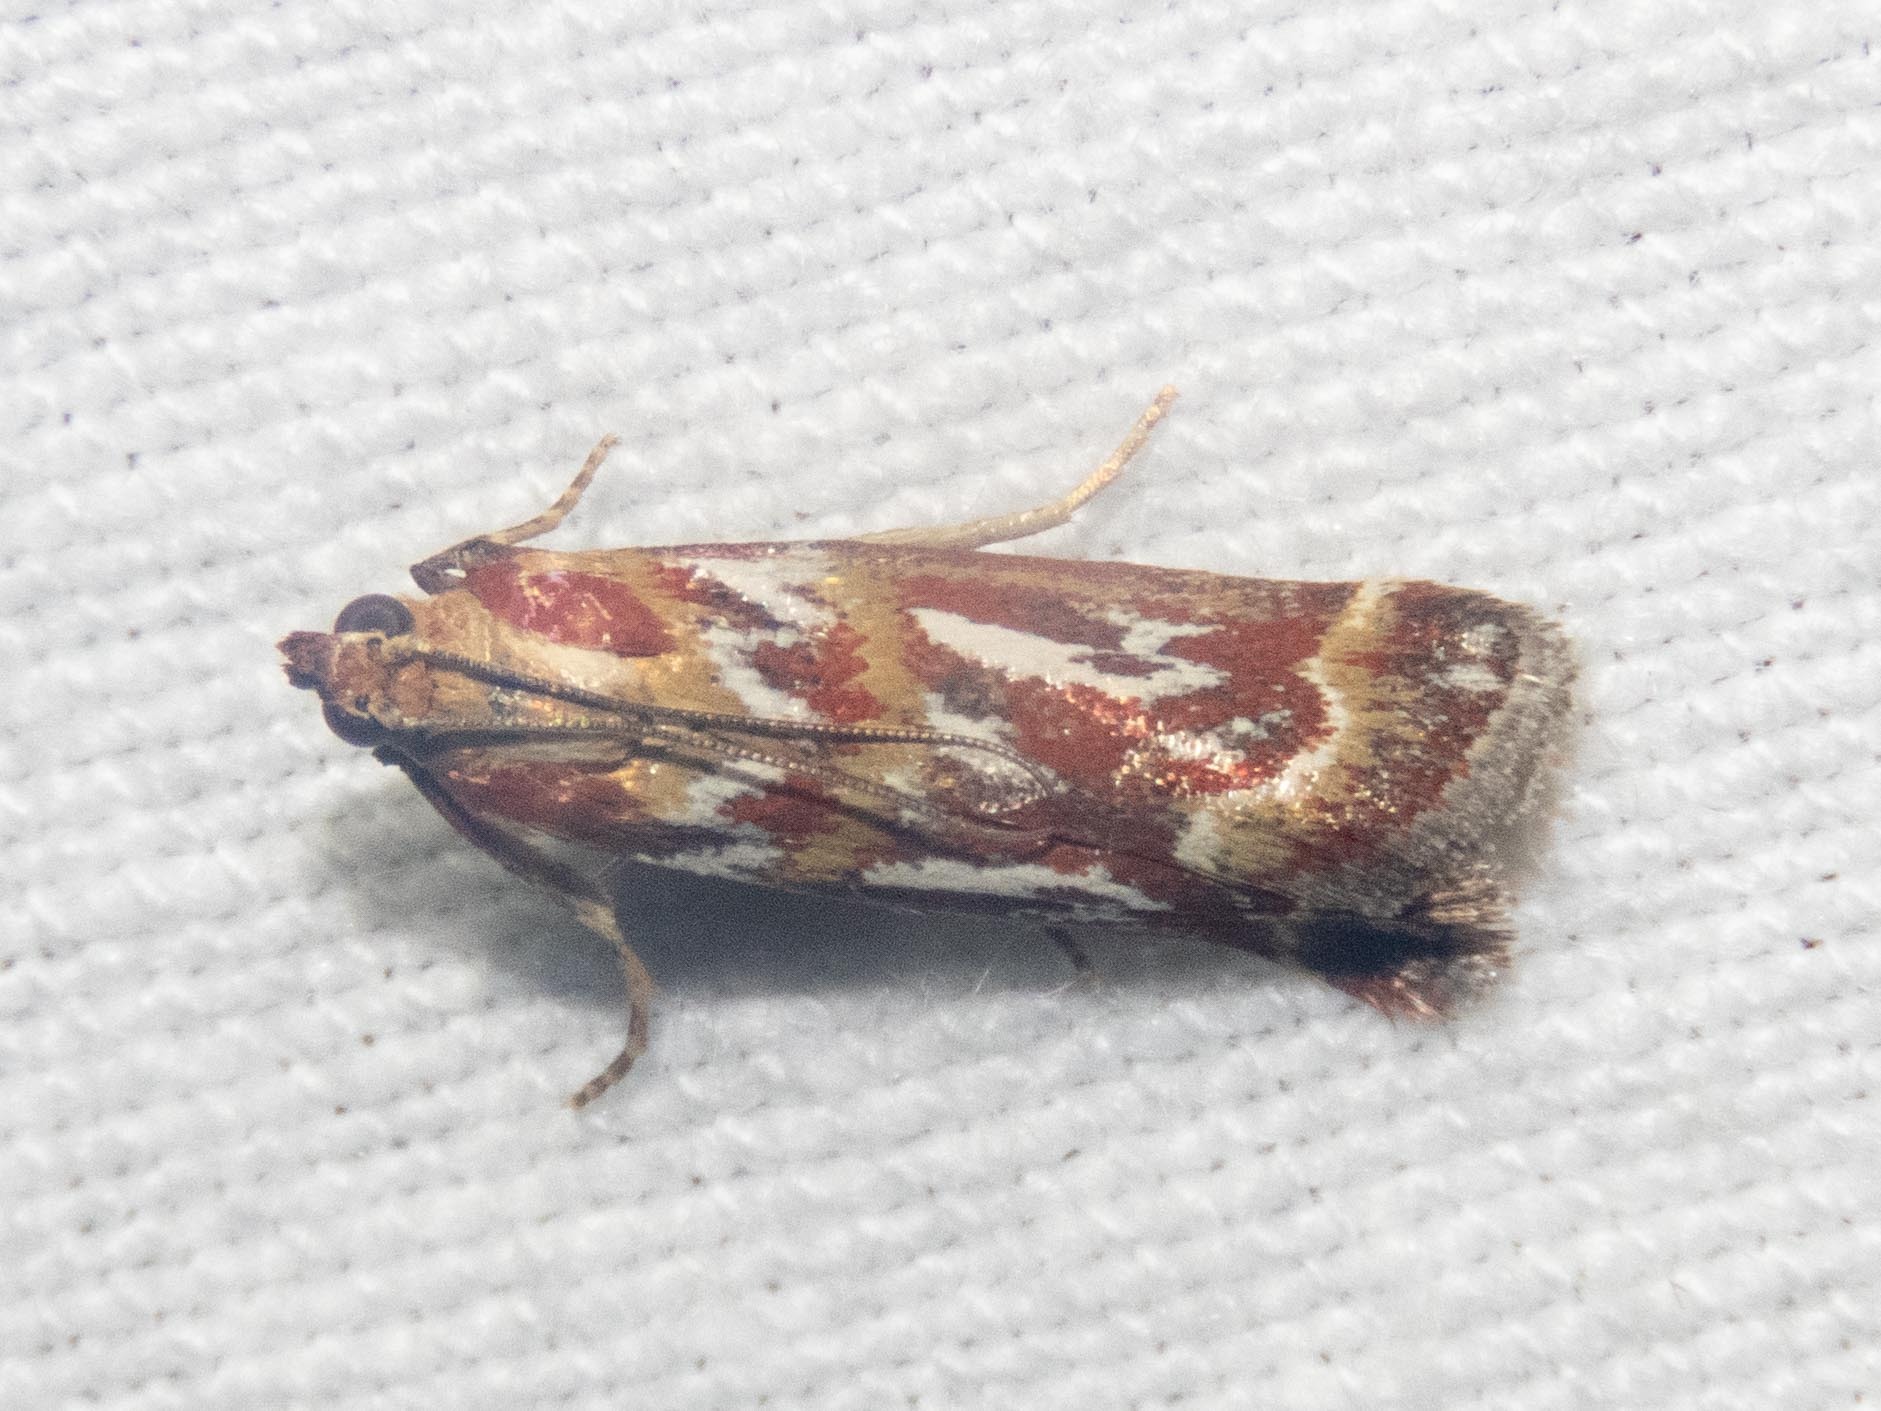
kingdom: Animalia
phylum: Arthropoda
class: Insecta
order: Lepidoptera
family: Pyralidae
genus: Acrobasis
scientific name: Acrobasis porphyrella
